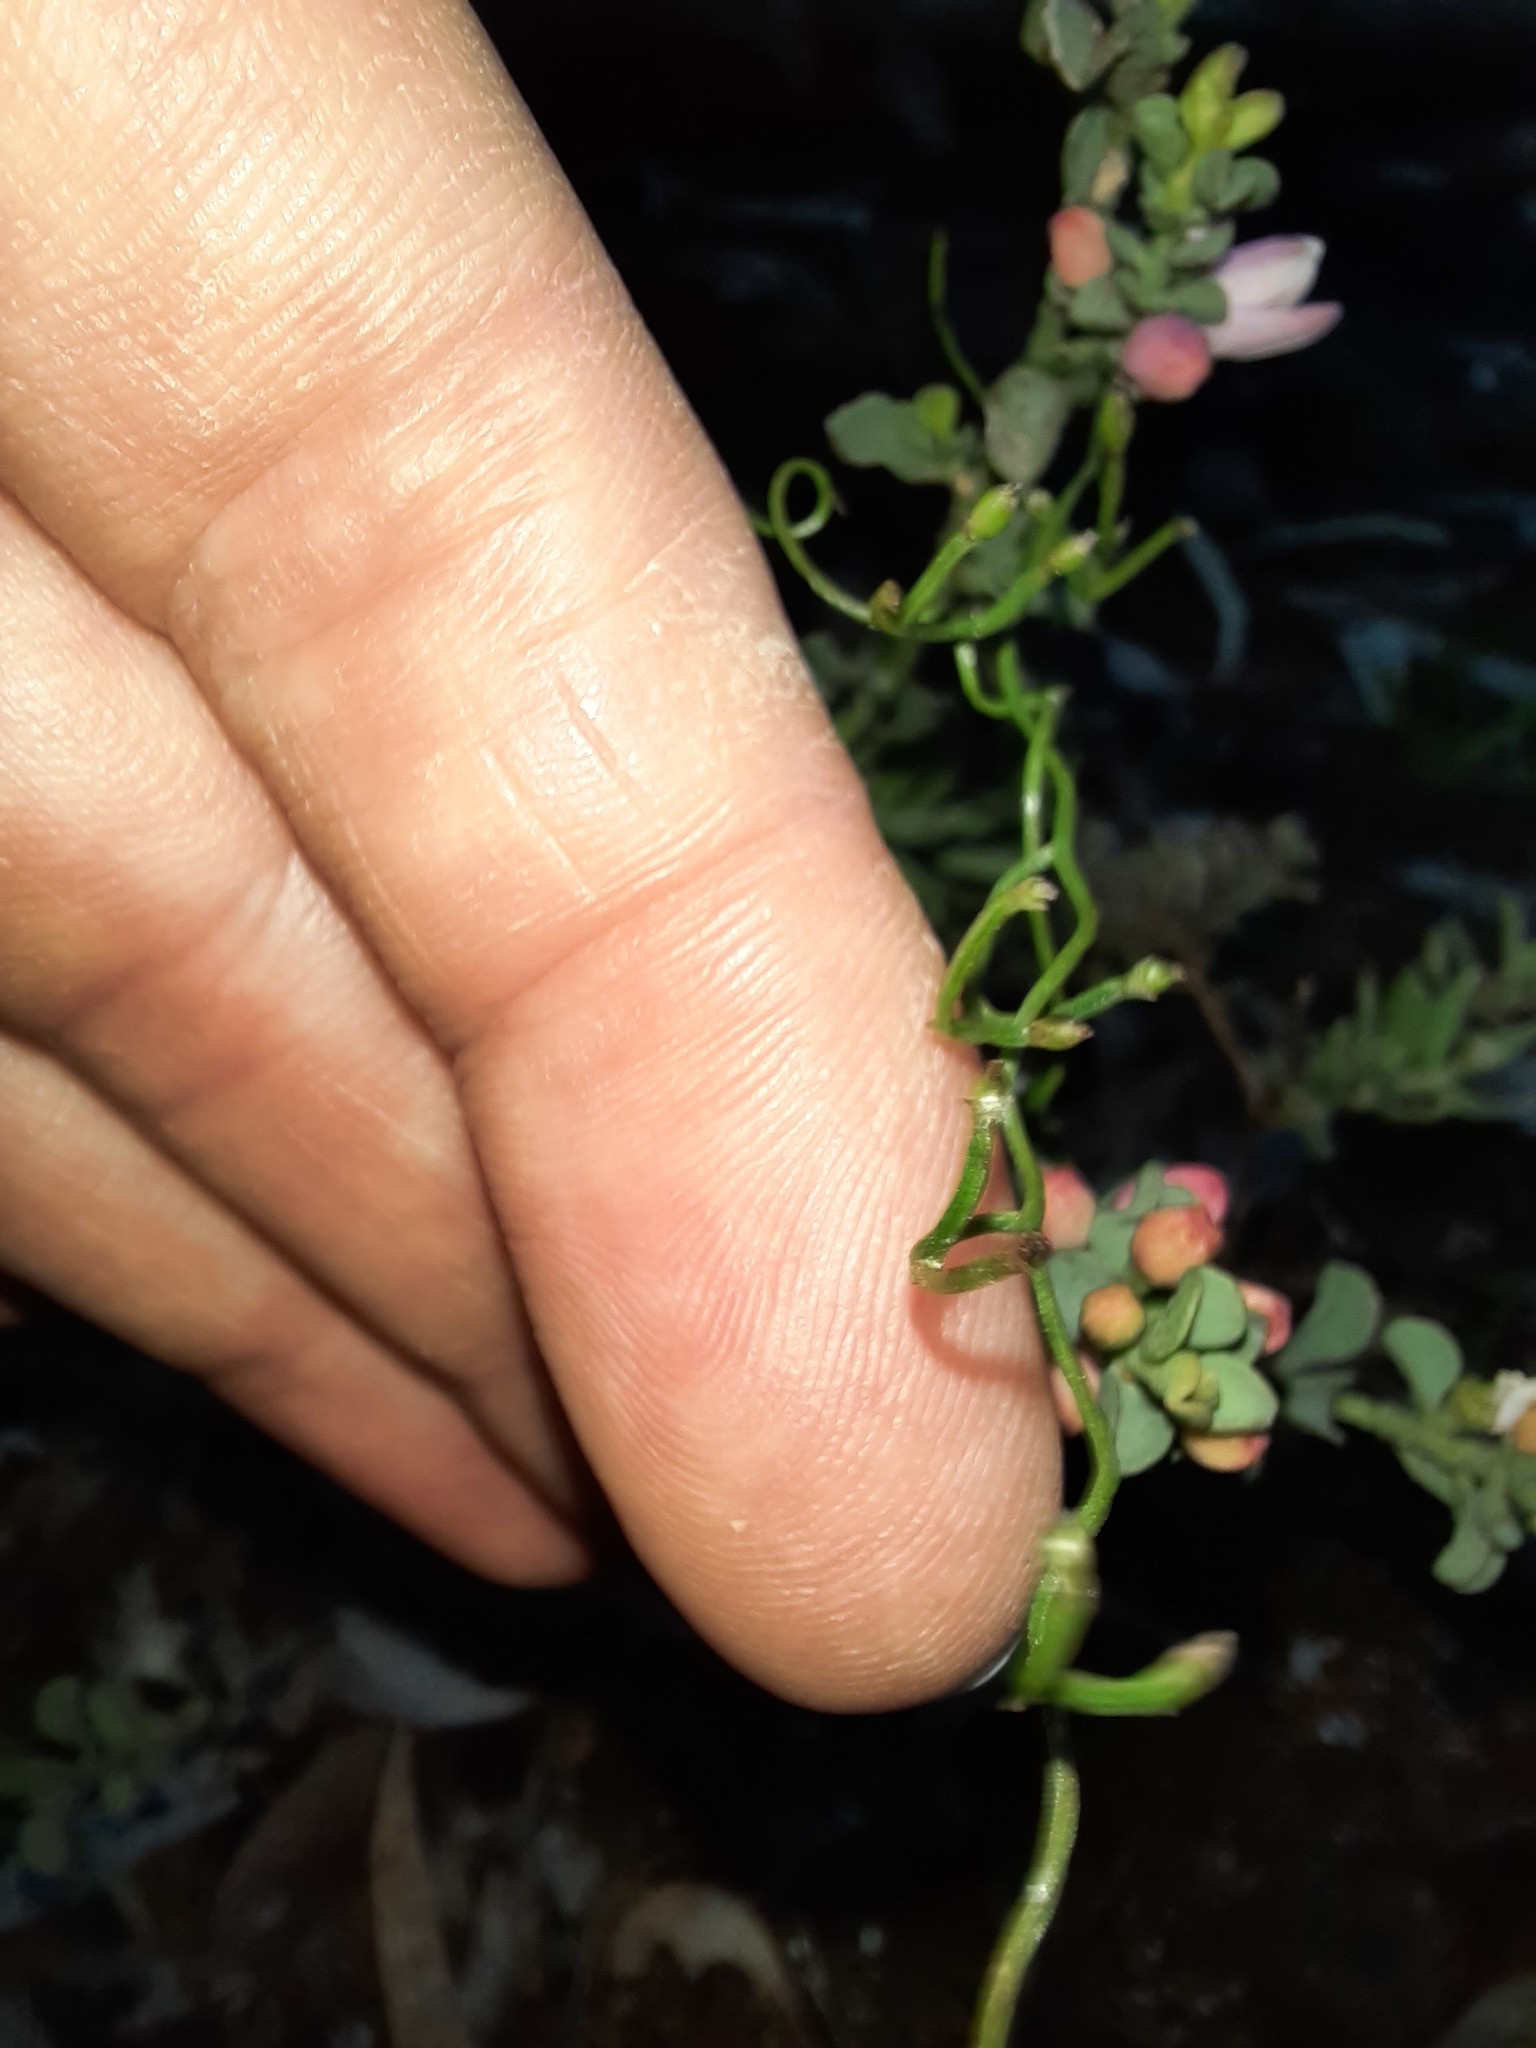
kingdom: Plantae
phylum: Tracheophyta
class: Liliopsida
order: Asparagales
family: Asparagaceae
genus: Thysanotus
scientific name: Thysanotus patersonii
